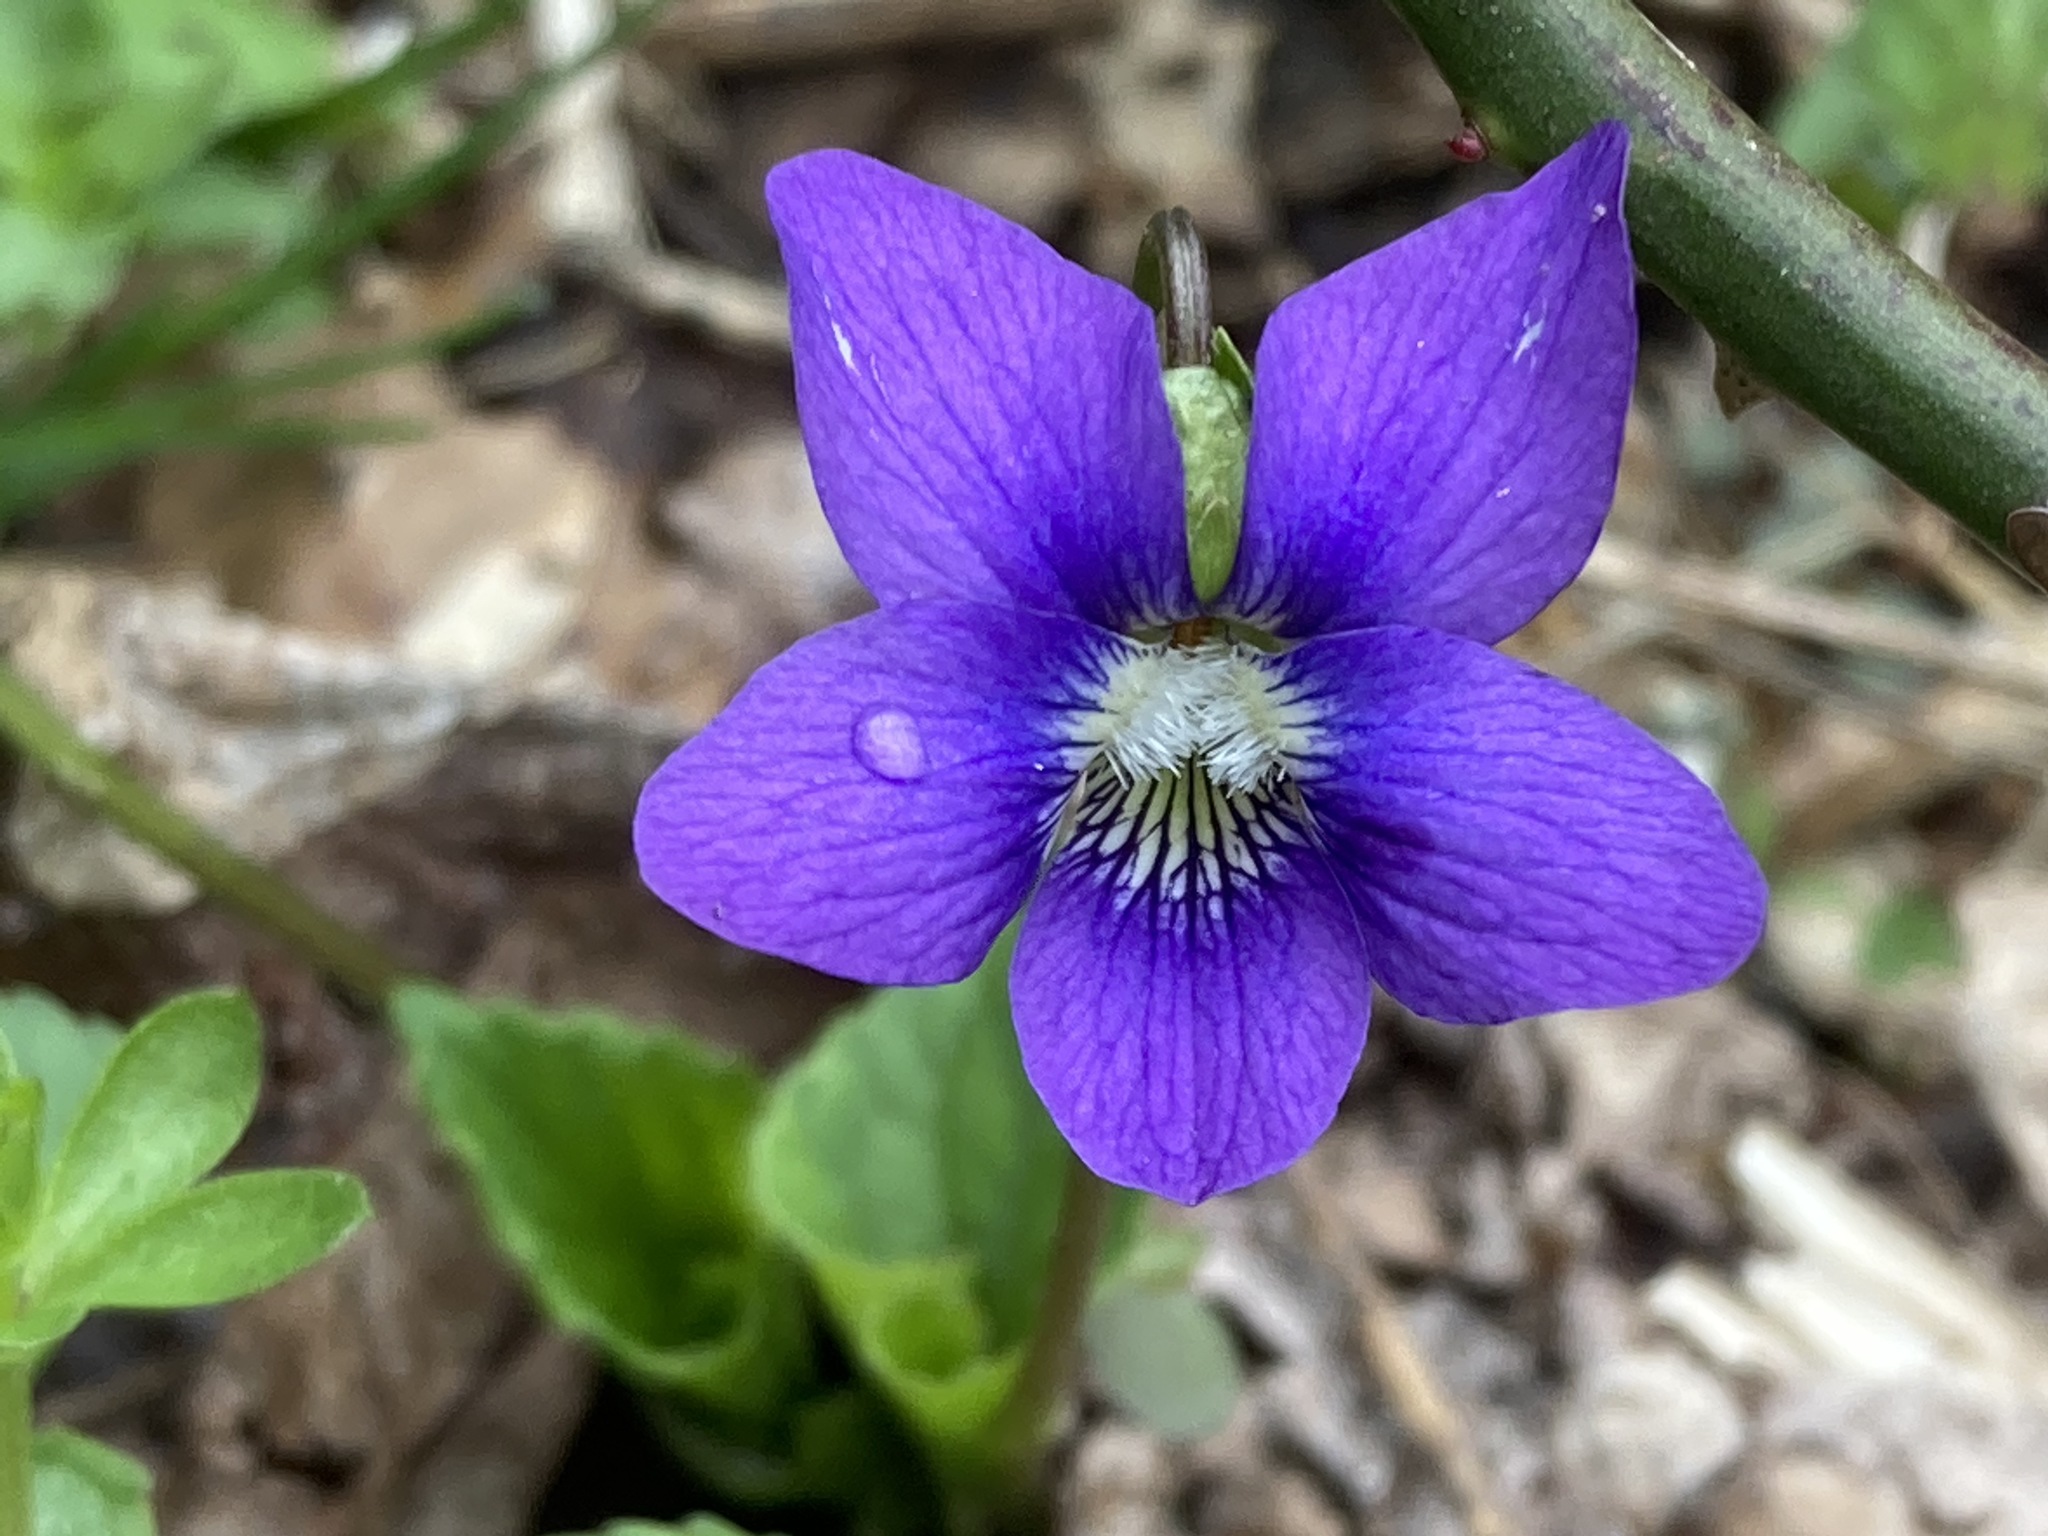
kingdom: Plantae
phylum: Tracheophyta
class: Magnoliopsida
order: Malpighiales
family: Violaceae
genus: Viola
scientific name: Viola sororia
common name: Dooryard violet
